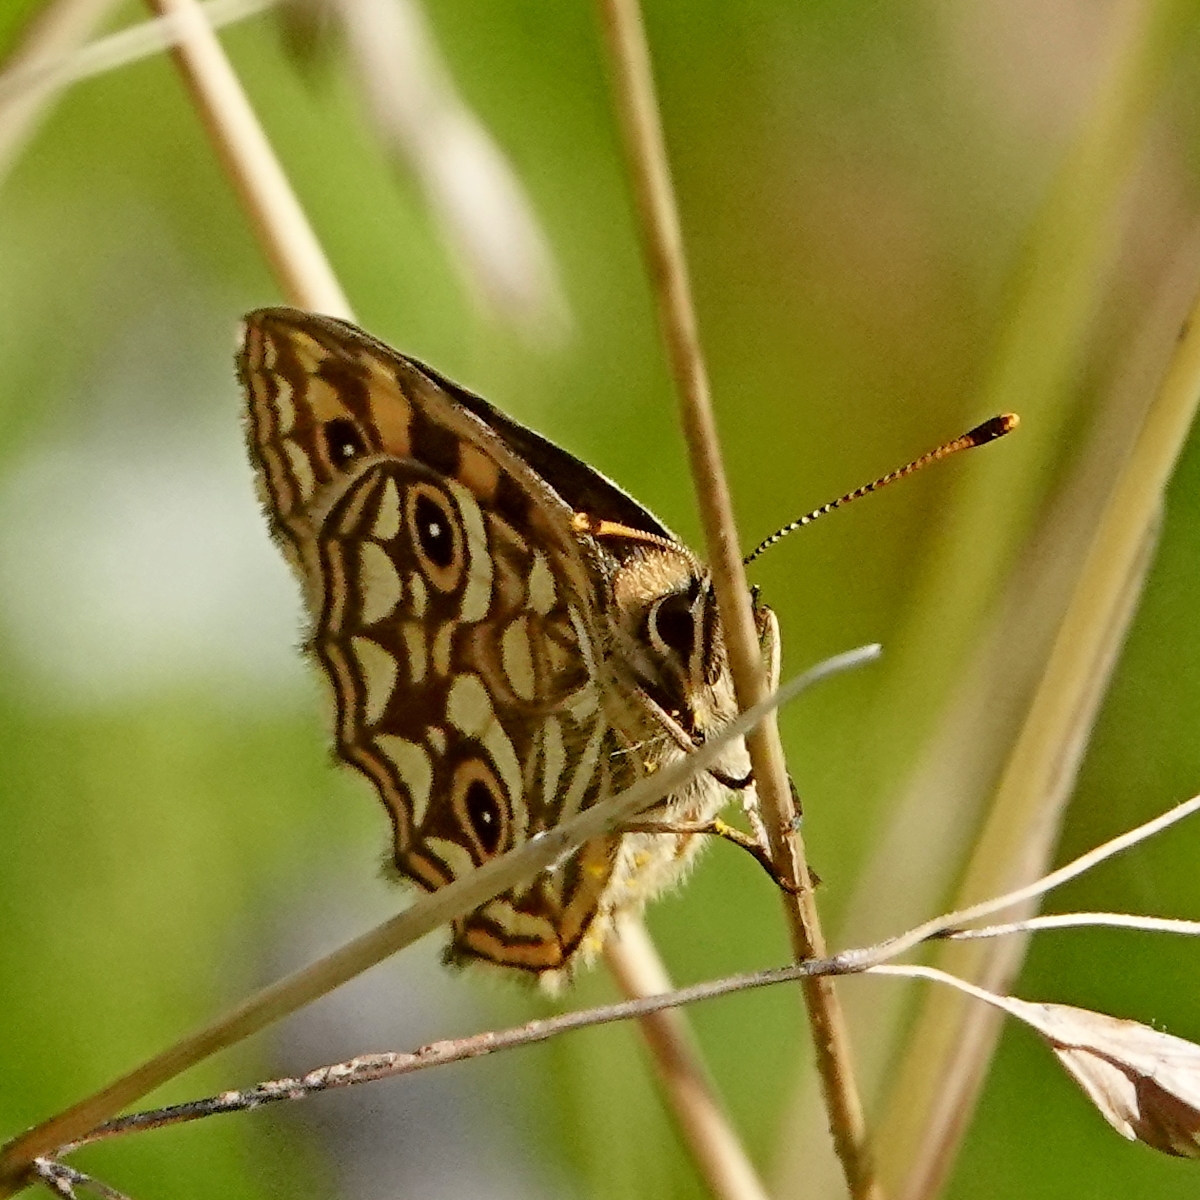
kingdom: Animalia
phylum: Arthropoda
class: Insecta
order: Lepidoptera
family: Nymphalidae
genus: Oreixenica
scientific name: Oreixenica lathoniella
